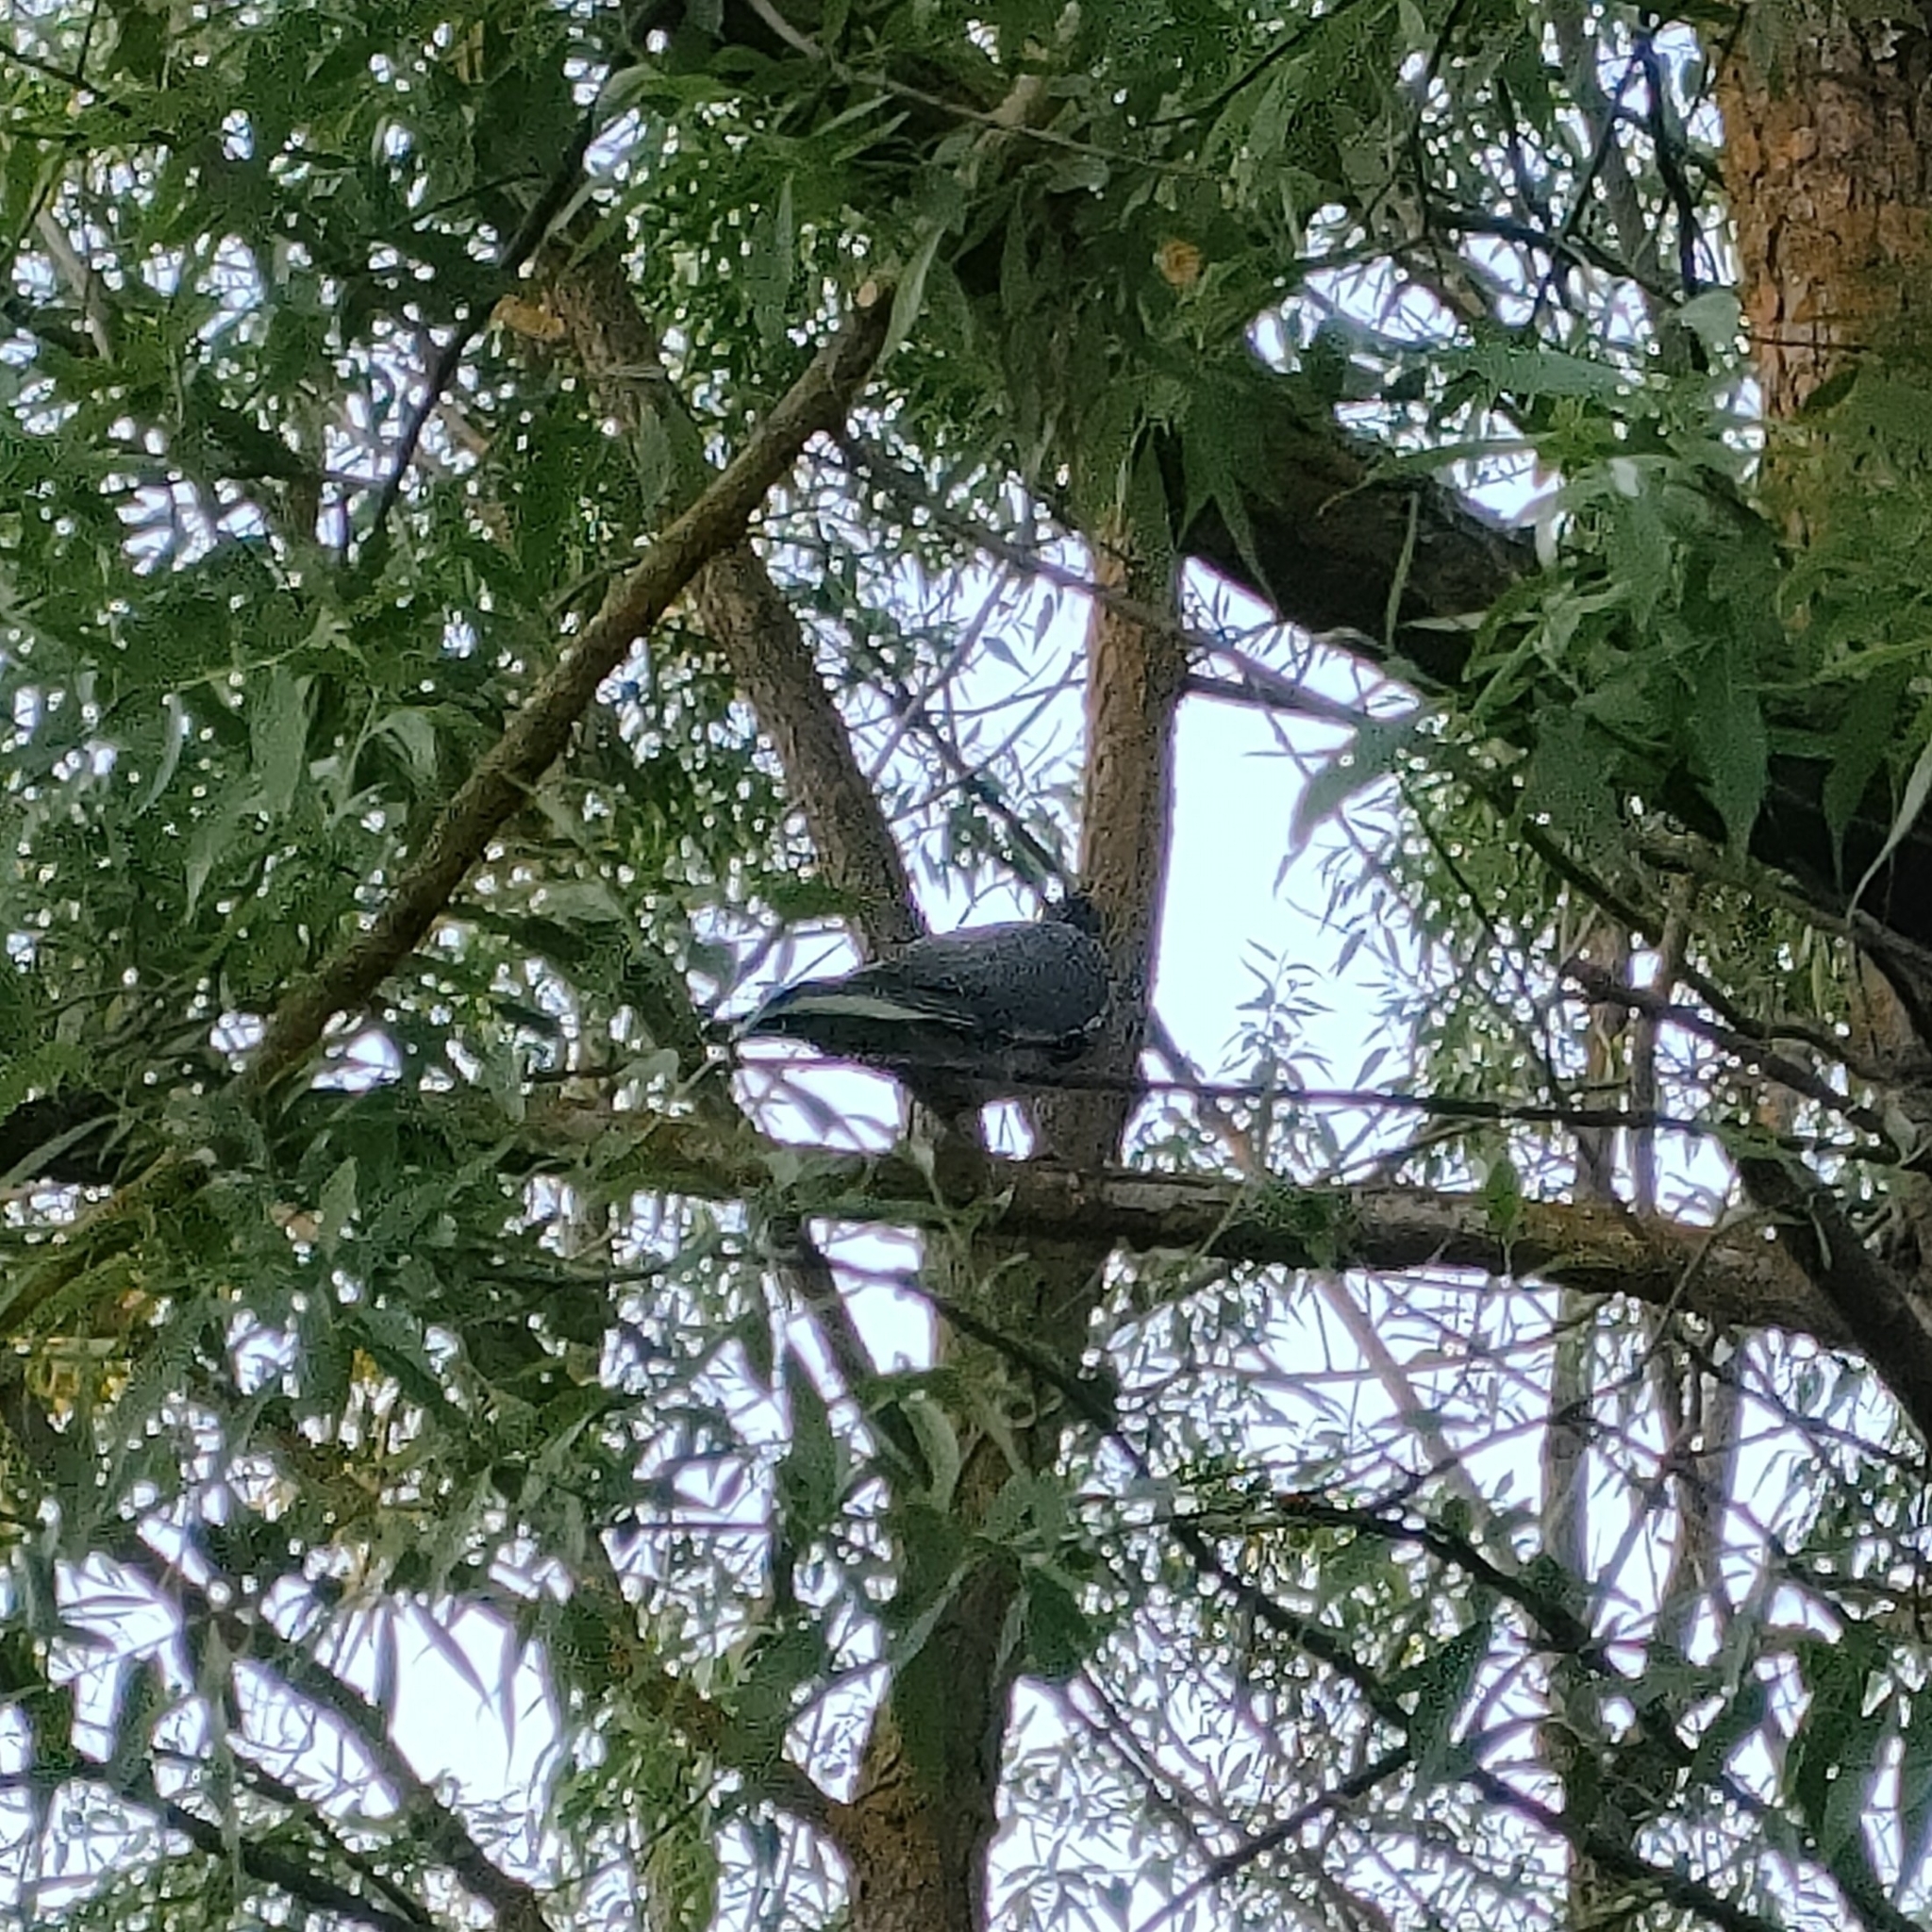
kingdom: Animalia
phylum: Chordata
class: Aves
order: Columbiformes
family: Columbidae
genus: Columba
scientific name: Columba palumbus
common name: Common wood pigeon
